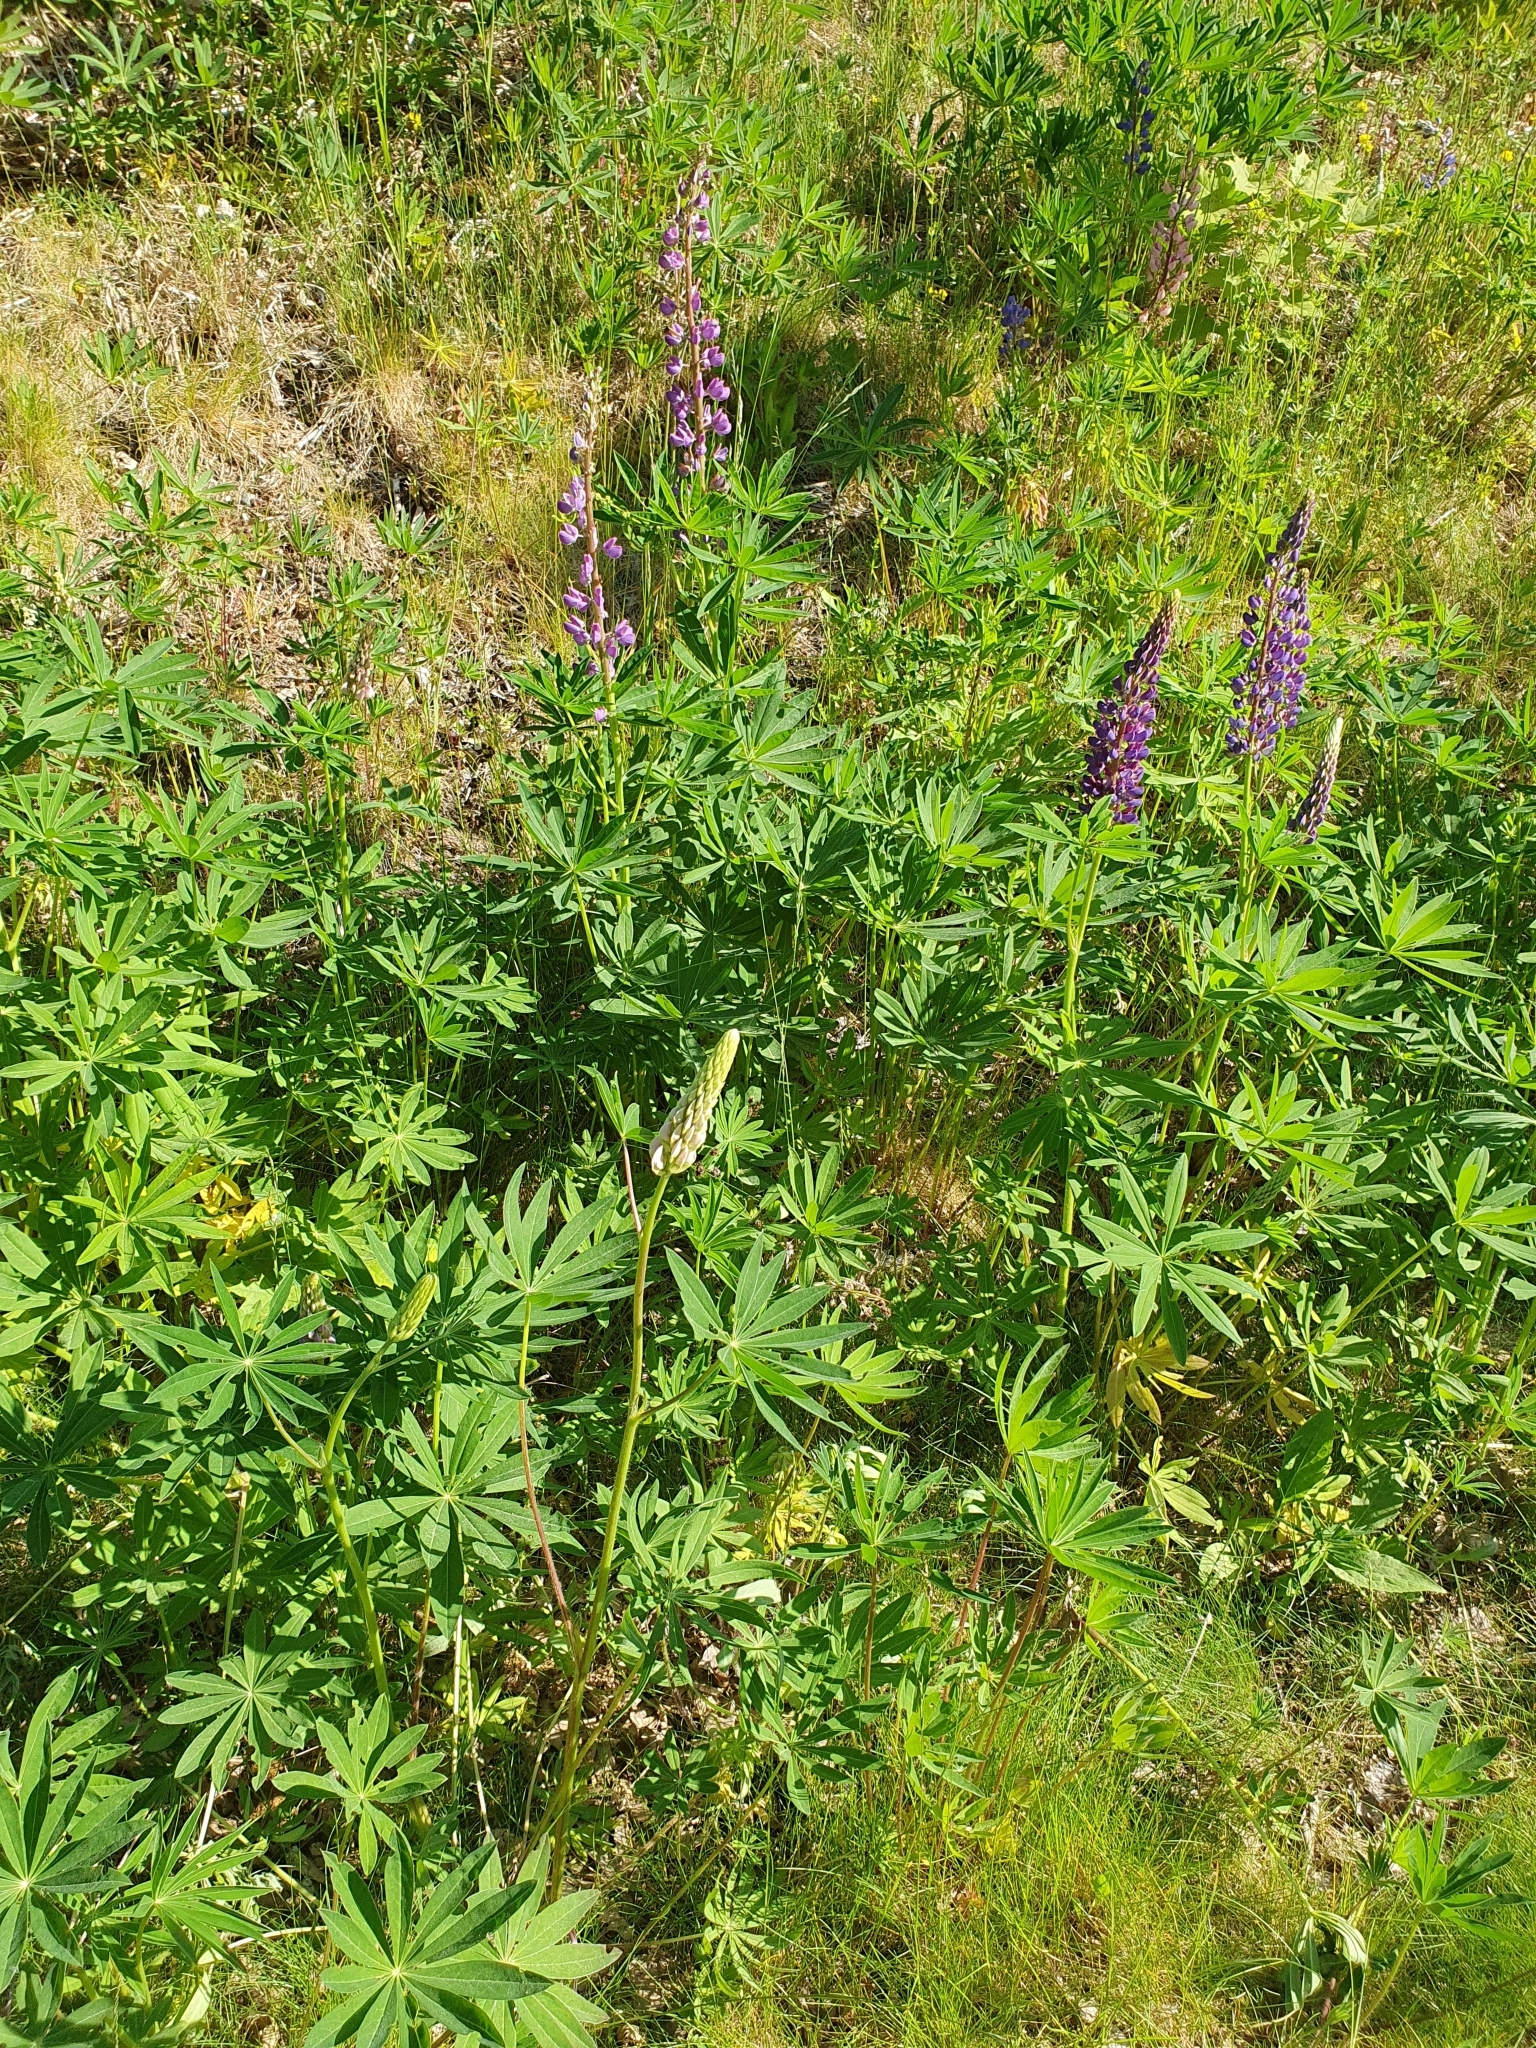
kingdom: Plantae
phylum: Tracheophyta
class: Magnoliopsida
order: Fabales
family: Fabaceae
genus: Lupinus
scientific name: Lupinus polyphyllus
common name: Garden lupin
